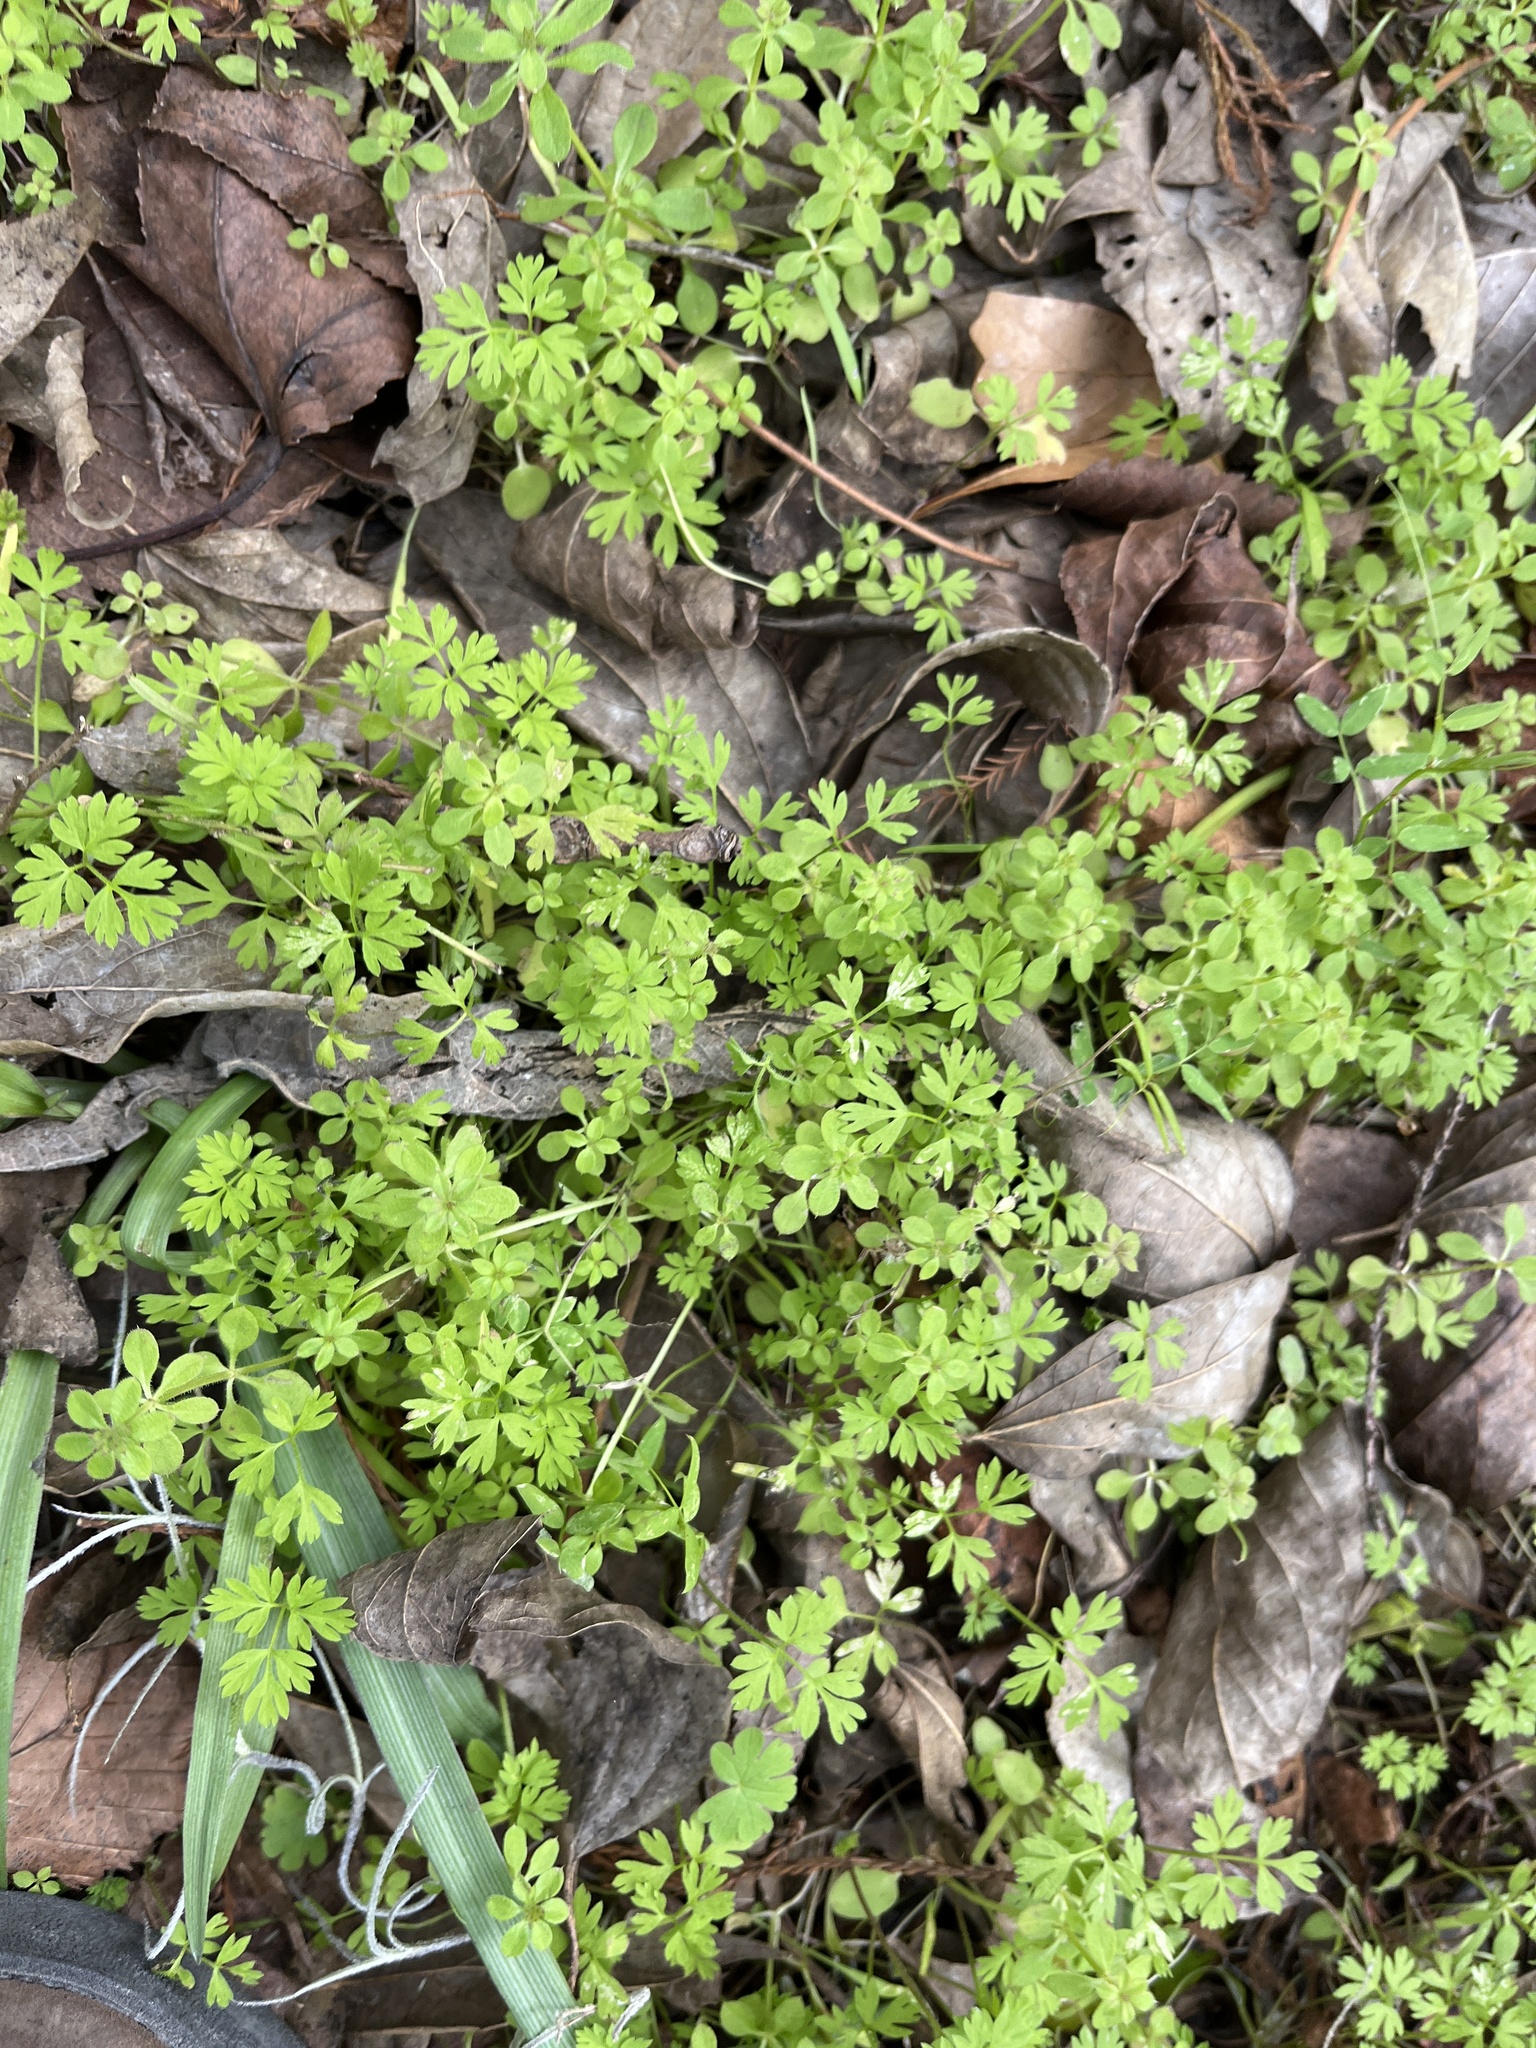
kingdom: Plantae
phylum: Tracheophyta
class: Magnoliopsida
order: Ranunculales
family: Papaveraceae
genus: Fumaria
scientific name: Fumaria
